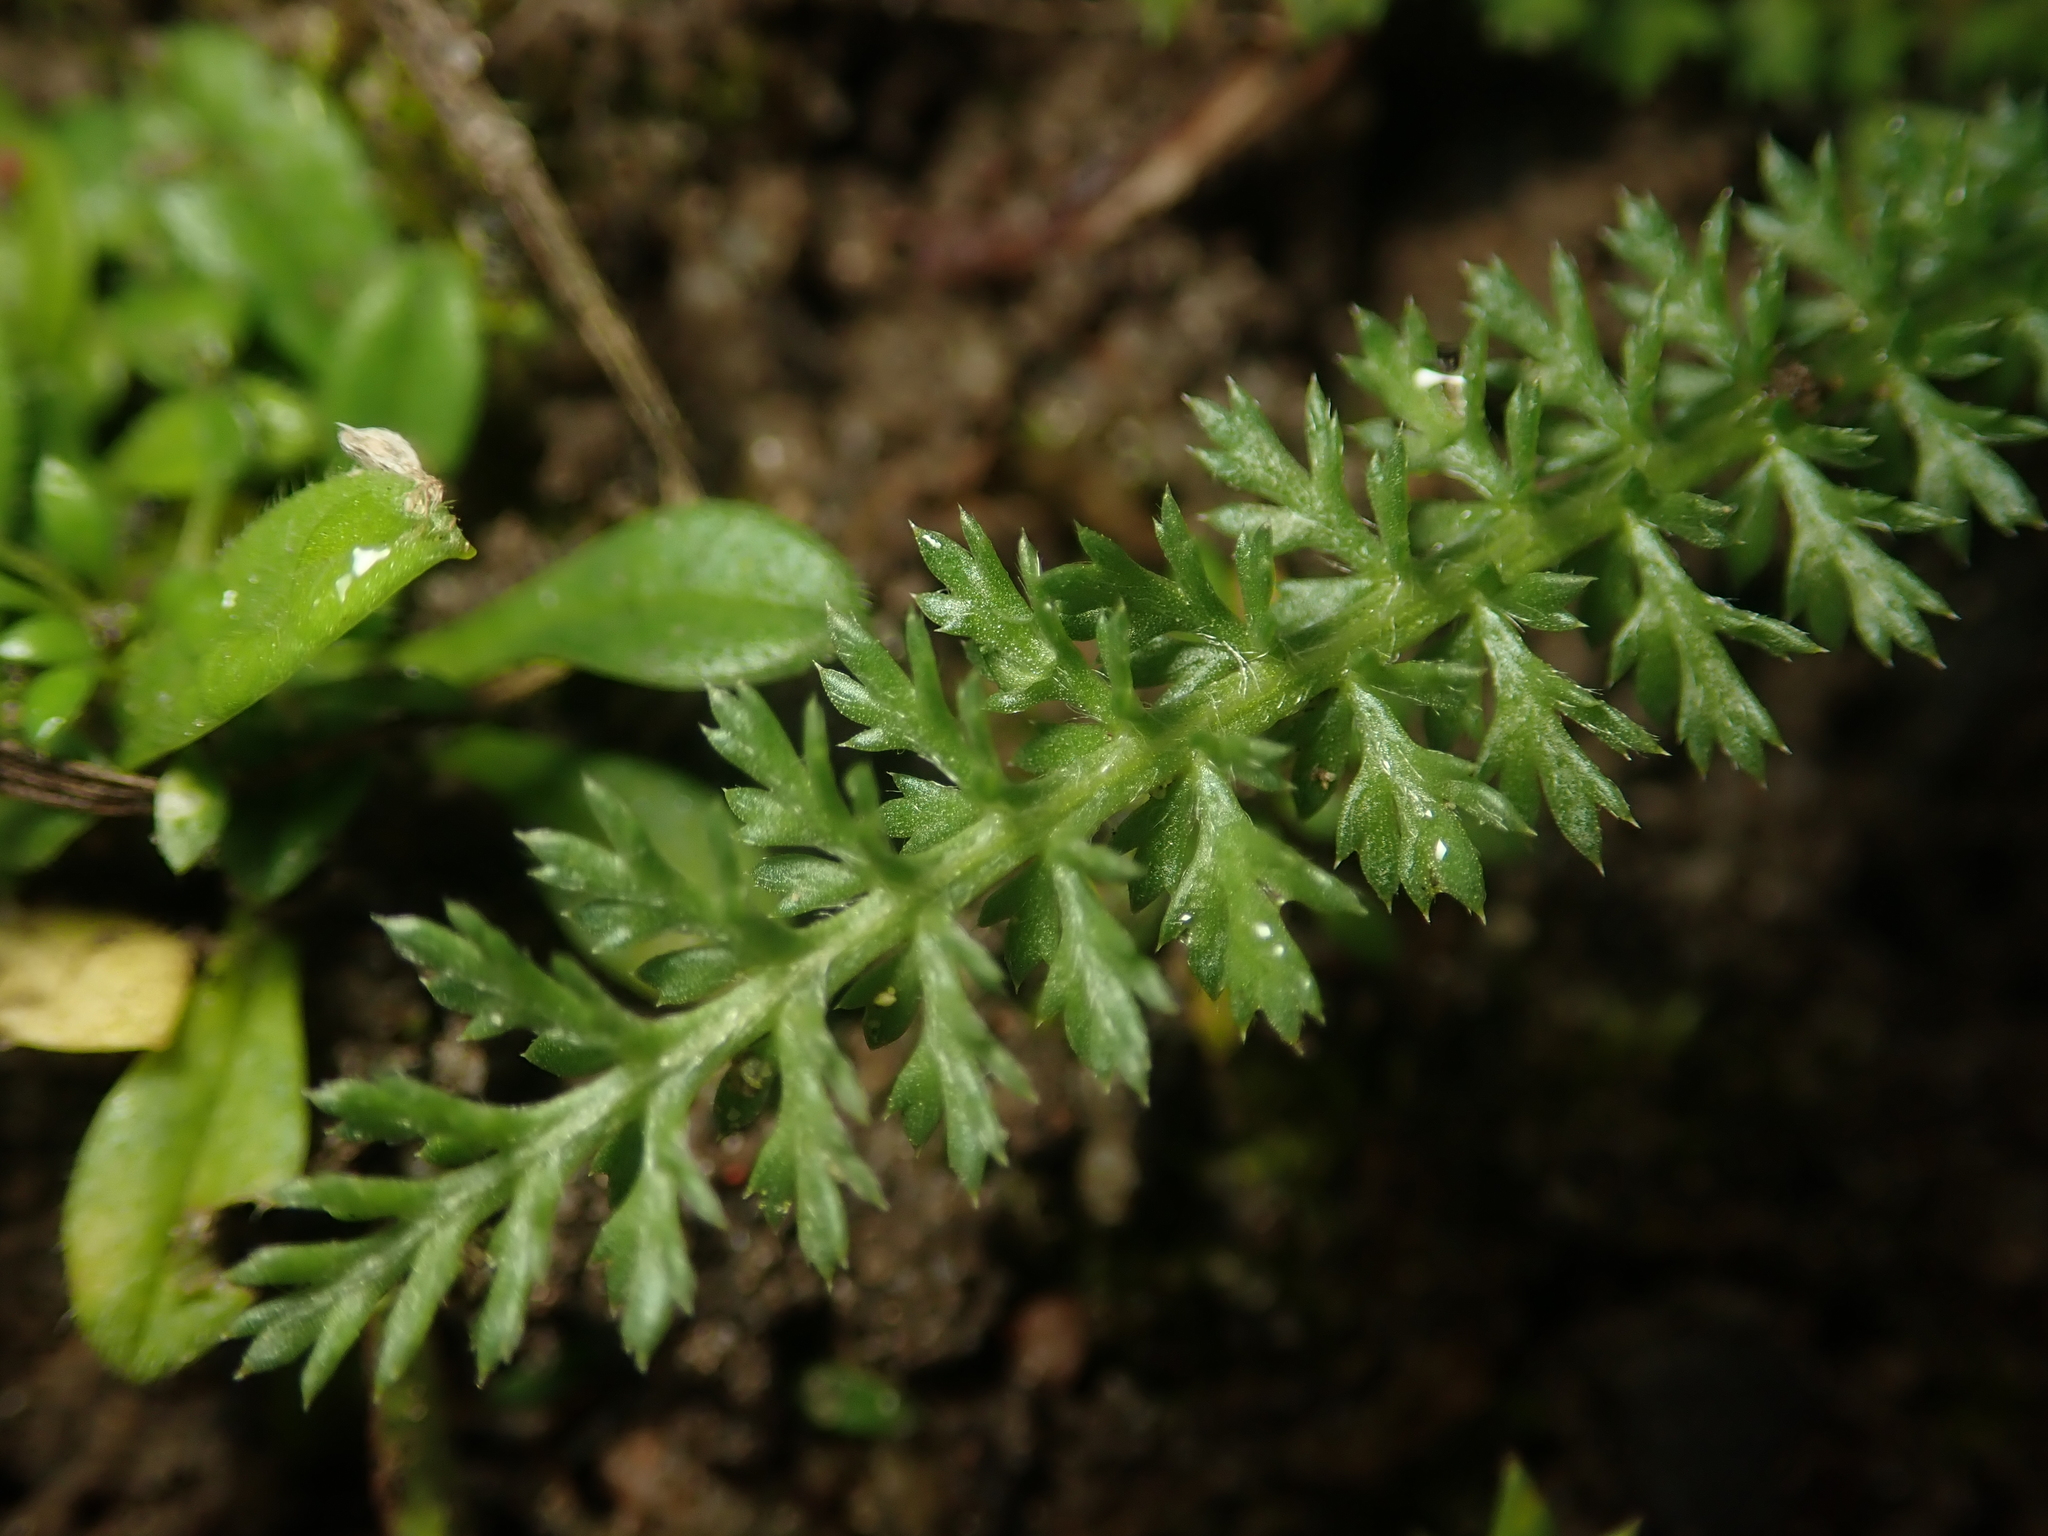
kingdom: Plantae
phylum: Tracheophyta
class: Magnoliopsida
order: Asterales
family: Asteraceae
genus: Achillea
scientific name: Achillea millefolium
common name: Yarrow
